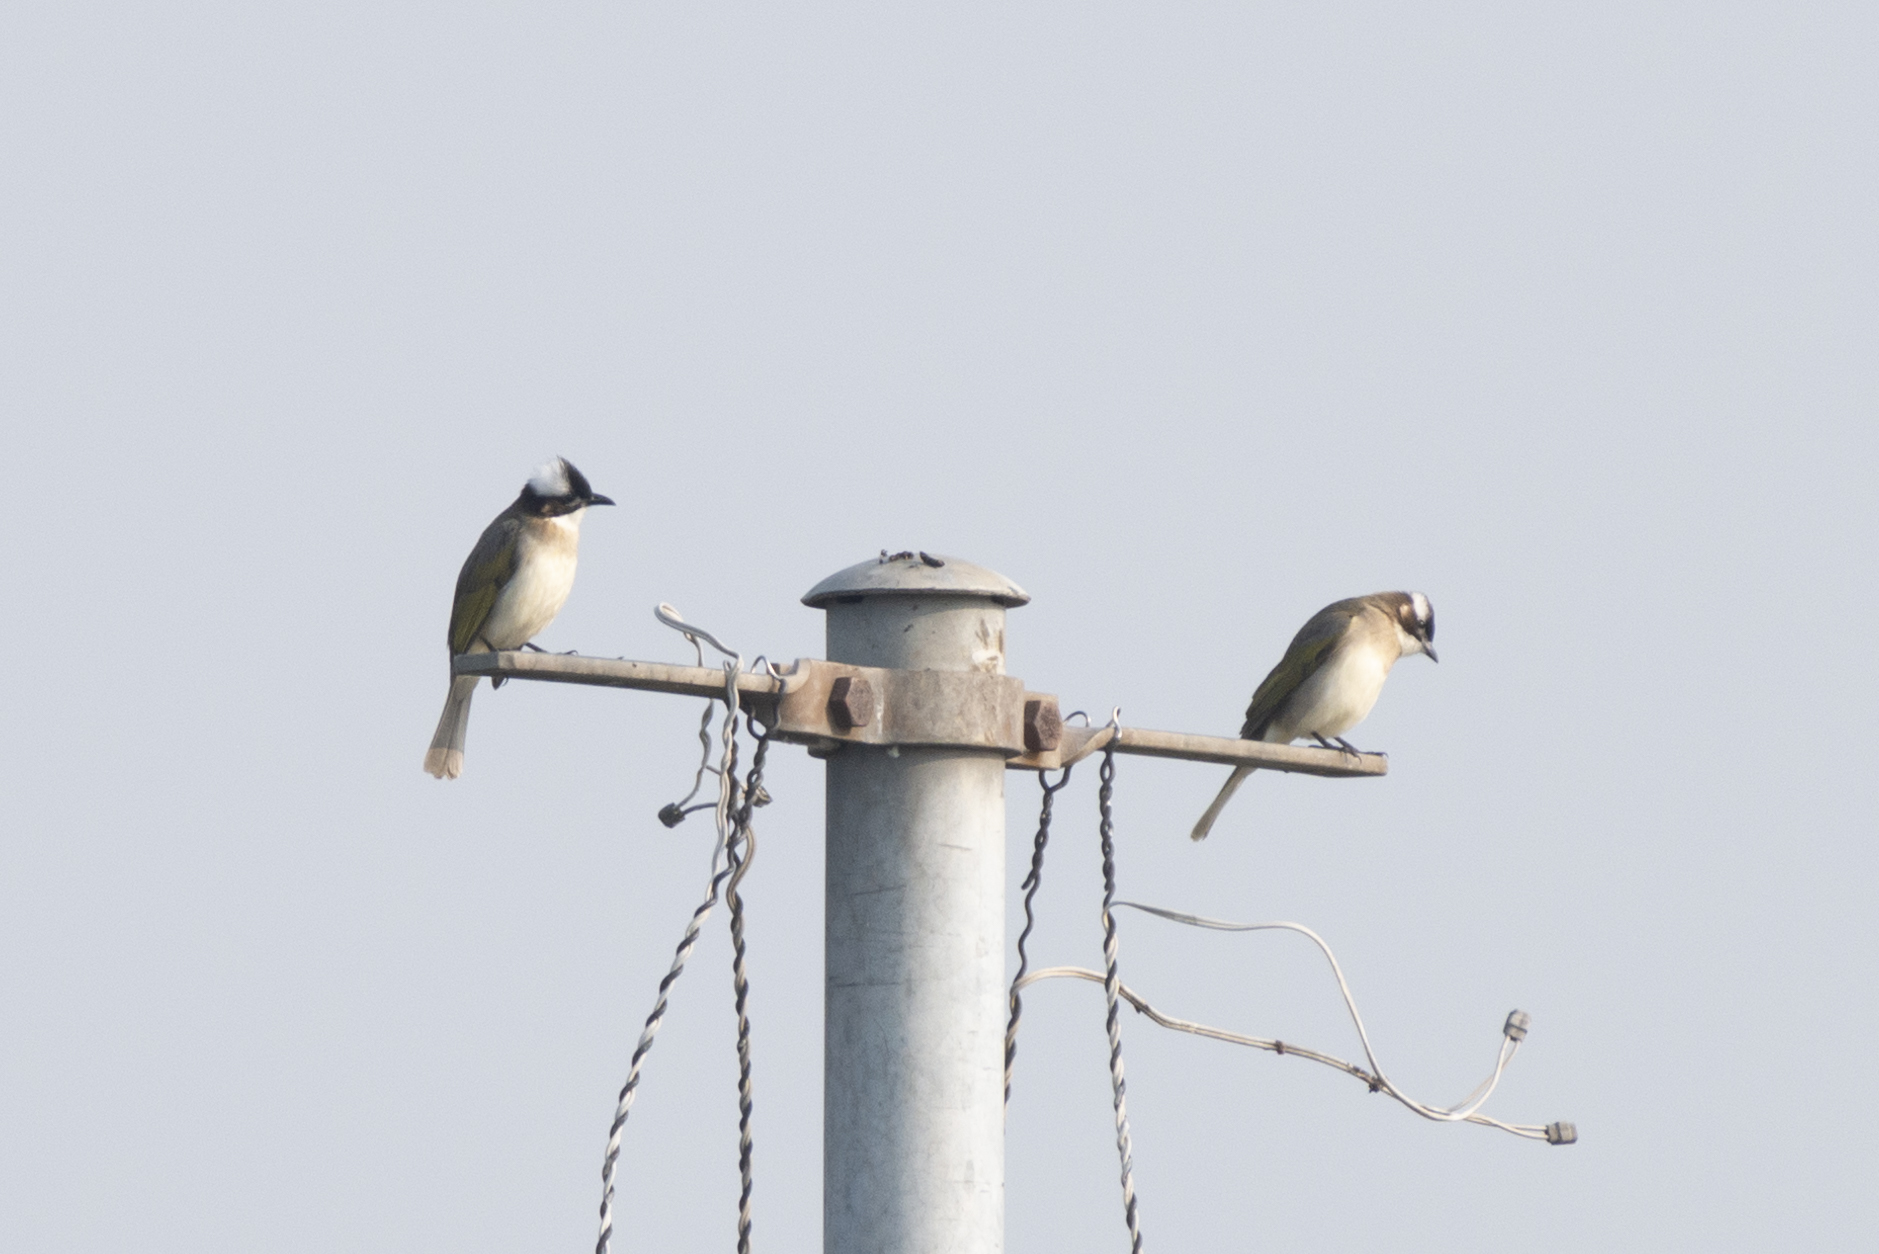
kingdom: Animalia
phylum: Chordata
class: Aves
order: Passeriformes
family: Pycnonotidae
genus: Pycnonotus
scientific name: Pycnonotus sinensis
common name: Light-vented bulbul
